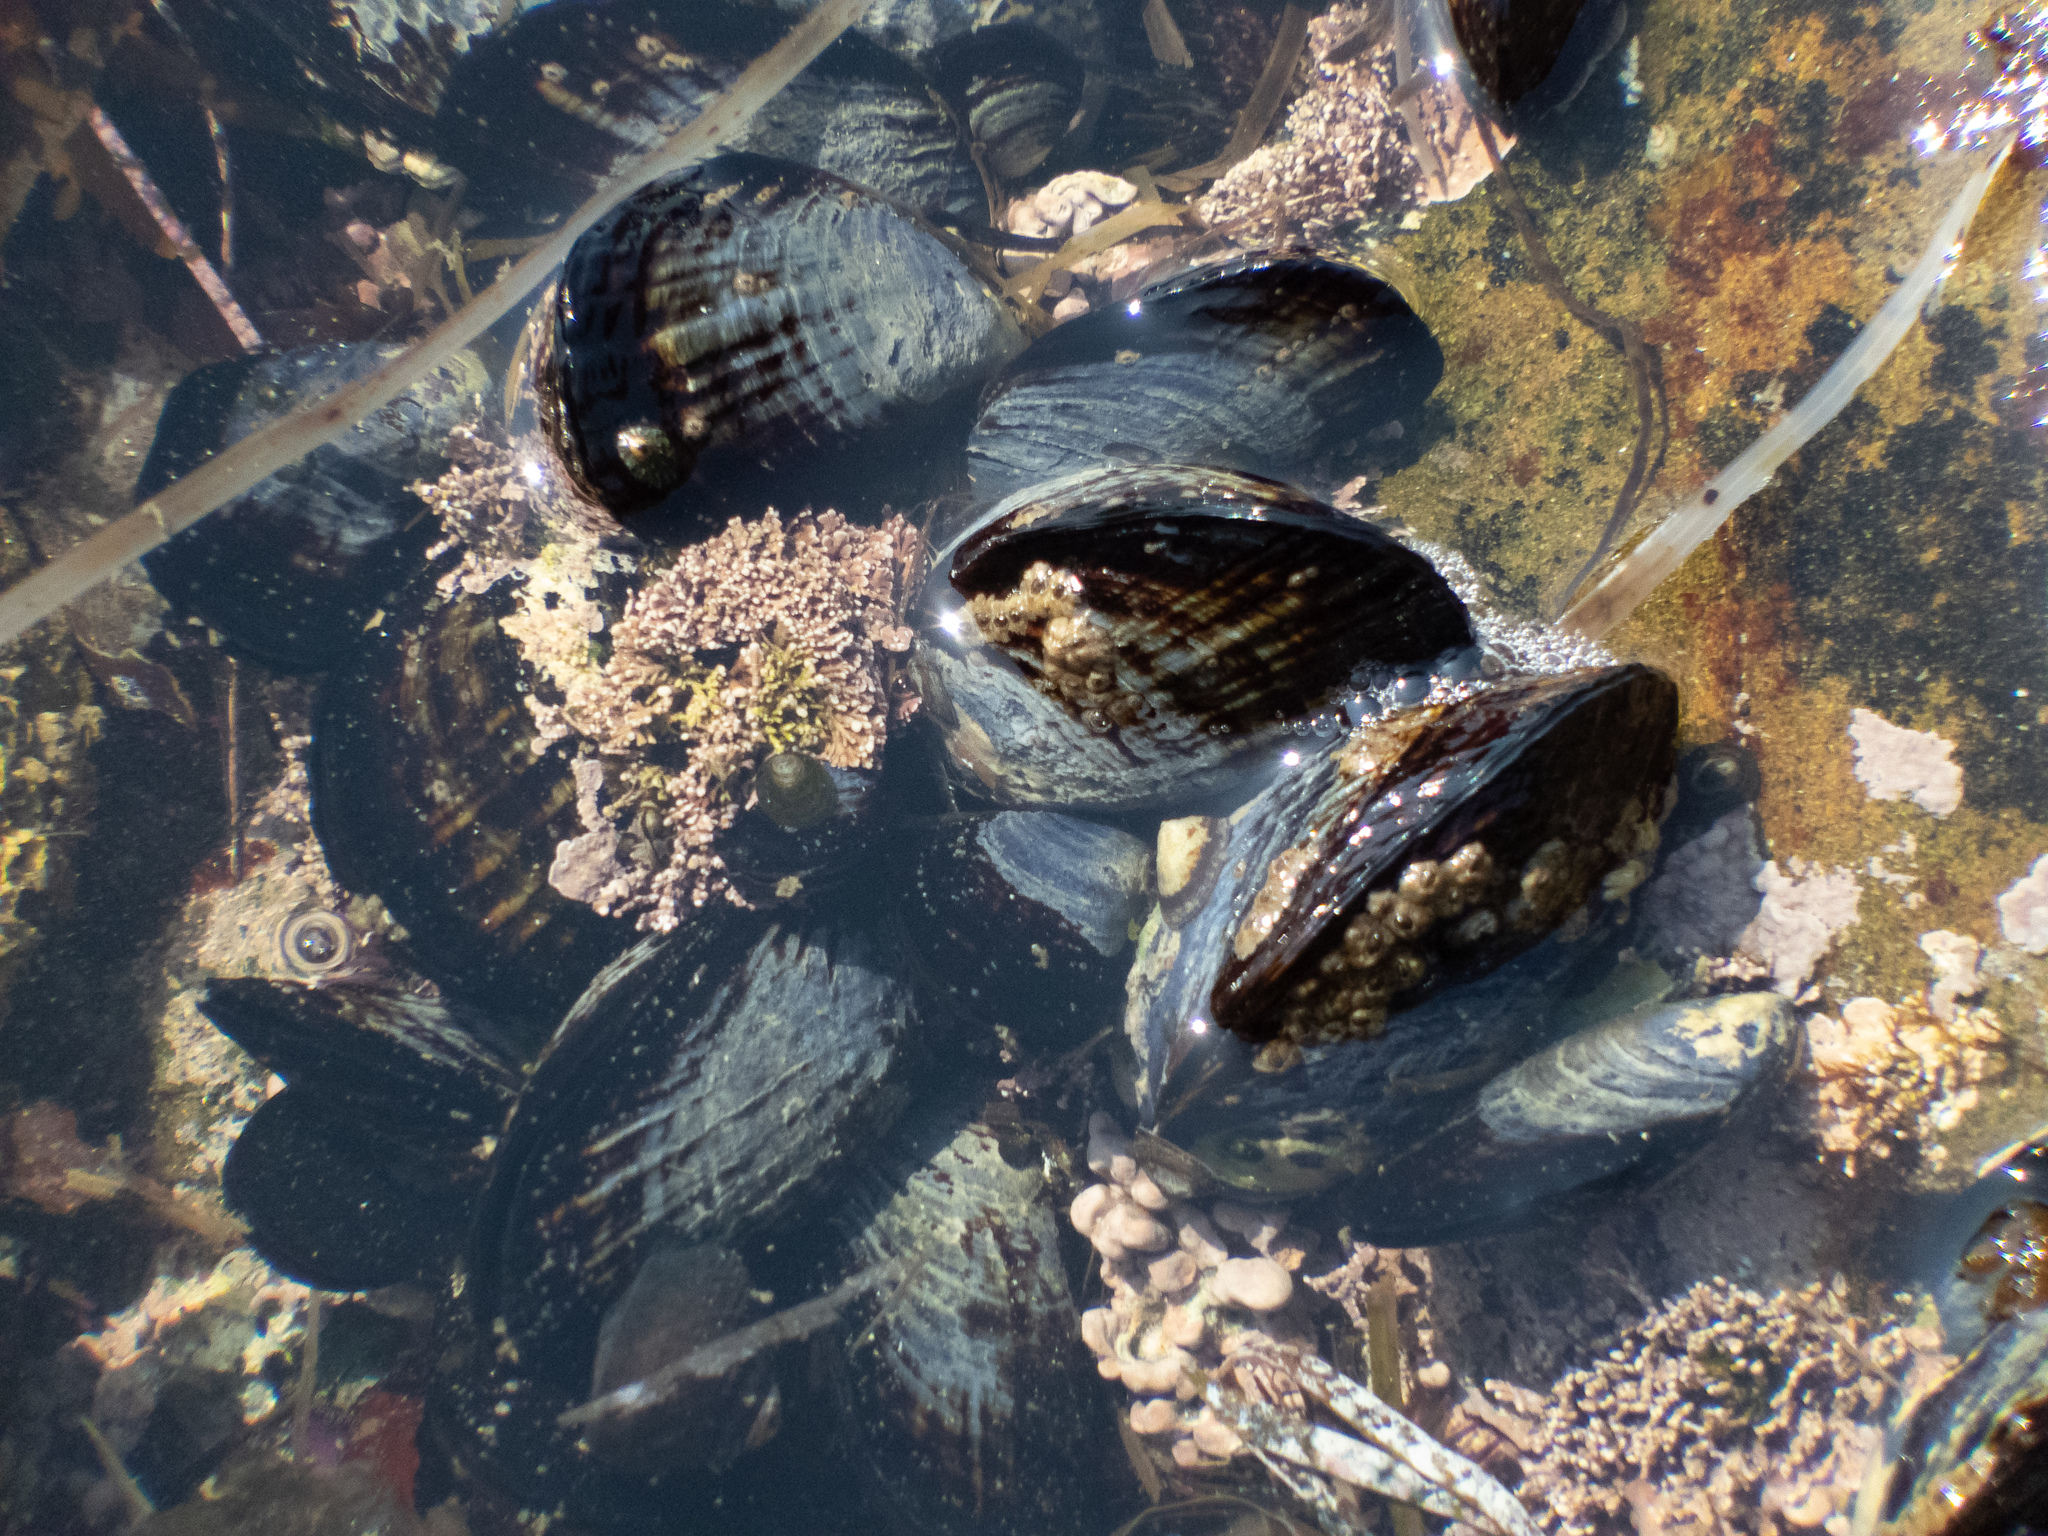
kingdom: Animalia
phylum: Mollusca
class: Bivalvia
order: Mytilida
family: Mytilidae
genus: Mytilus
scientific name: Mytilus californianus
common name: California mussel
